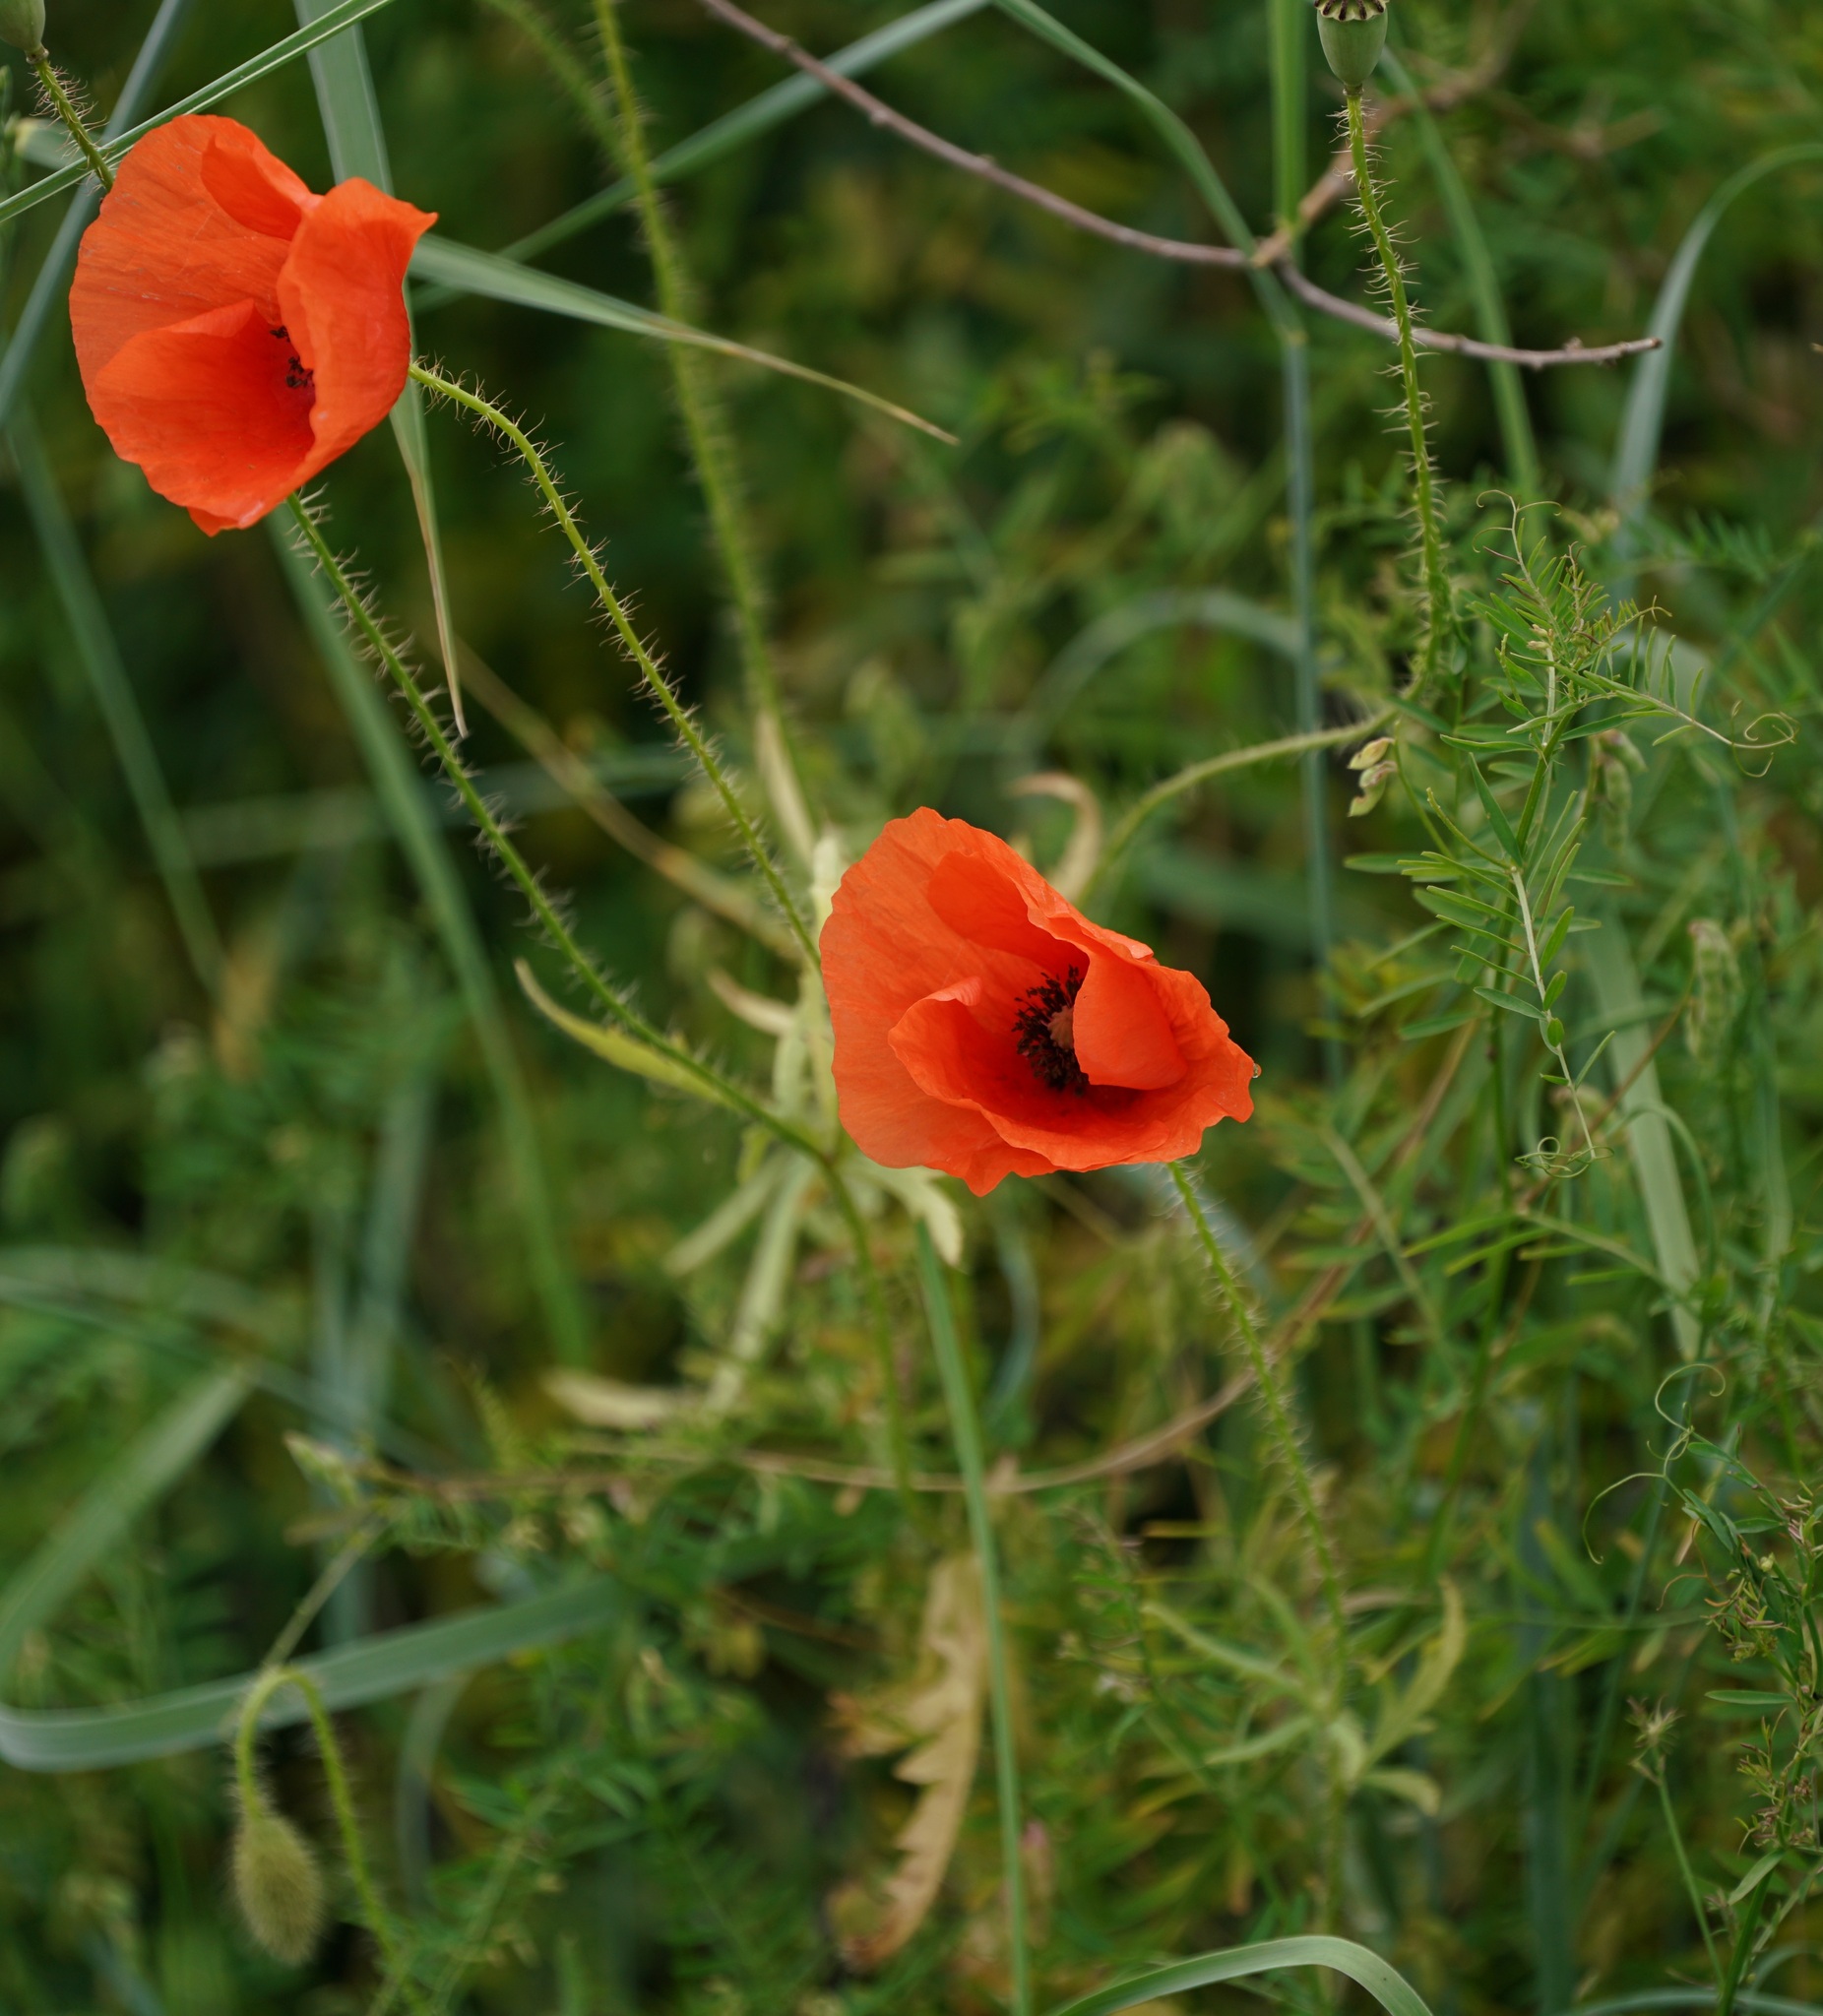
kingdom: Plantae
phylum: Tracheophyta
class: Magnoliopsida
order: Ranunculales
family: Papaveraceae
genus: Papaver
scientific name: Papaver rhoeas
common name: Corn poppy
